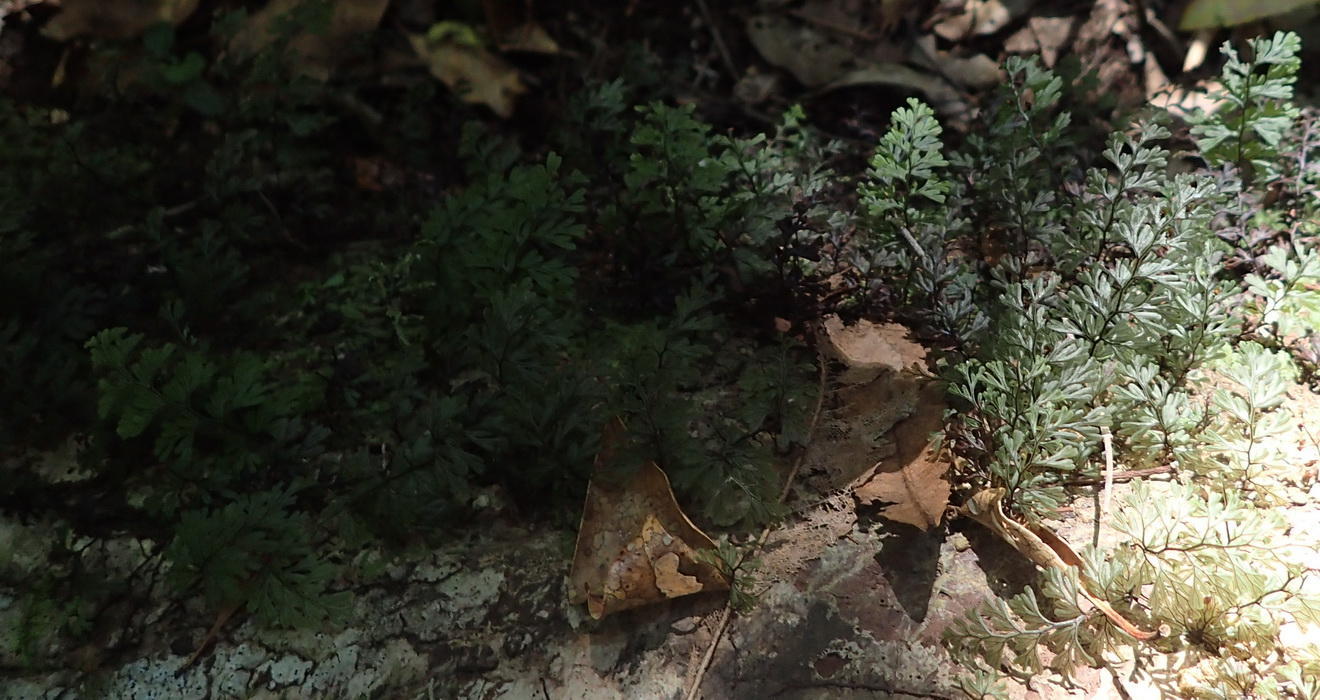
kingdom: Plantae
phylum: Tracheophyta
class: Polypodiopsida
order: Hymenophyllales
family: Hymenophyllaceae
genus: Hymenophyllum
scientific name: Hymenophyllum tunbrigense
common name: Tunbridge filmy fern
